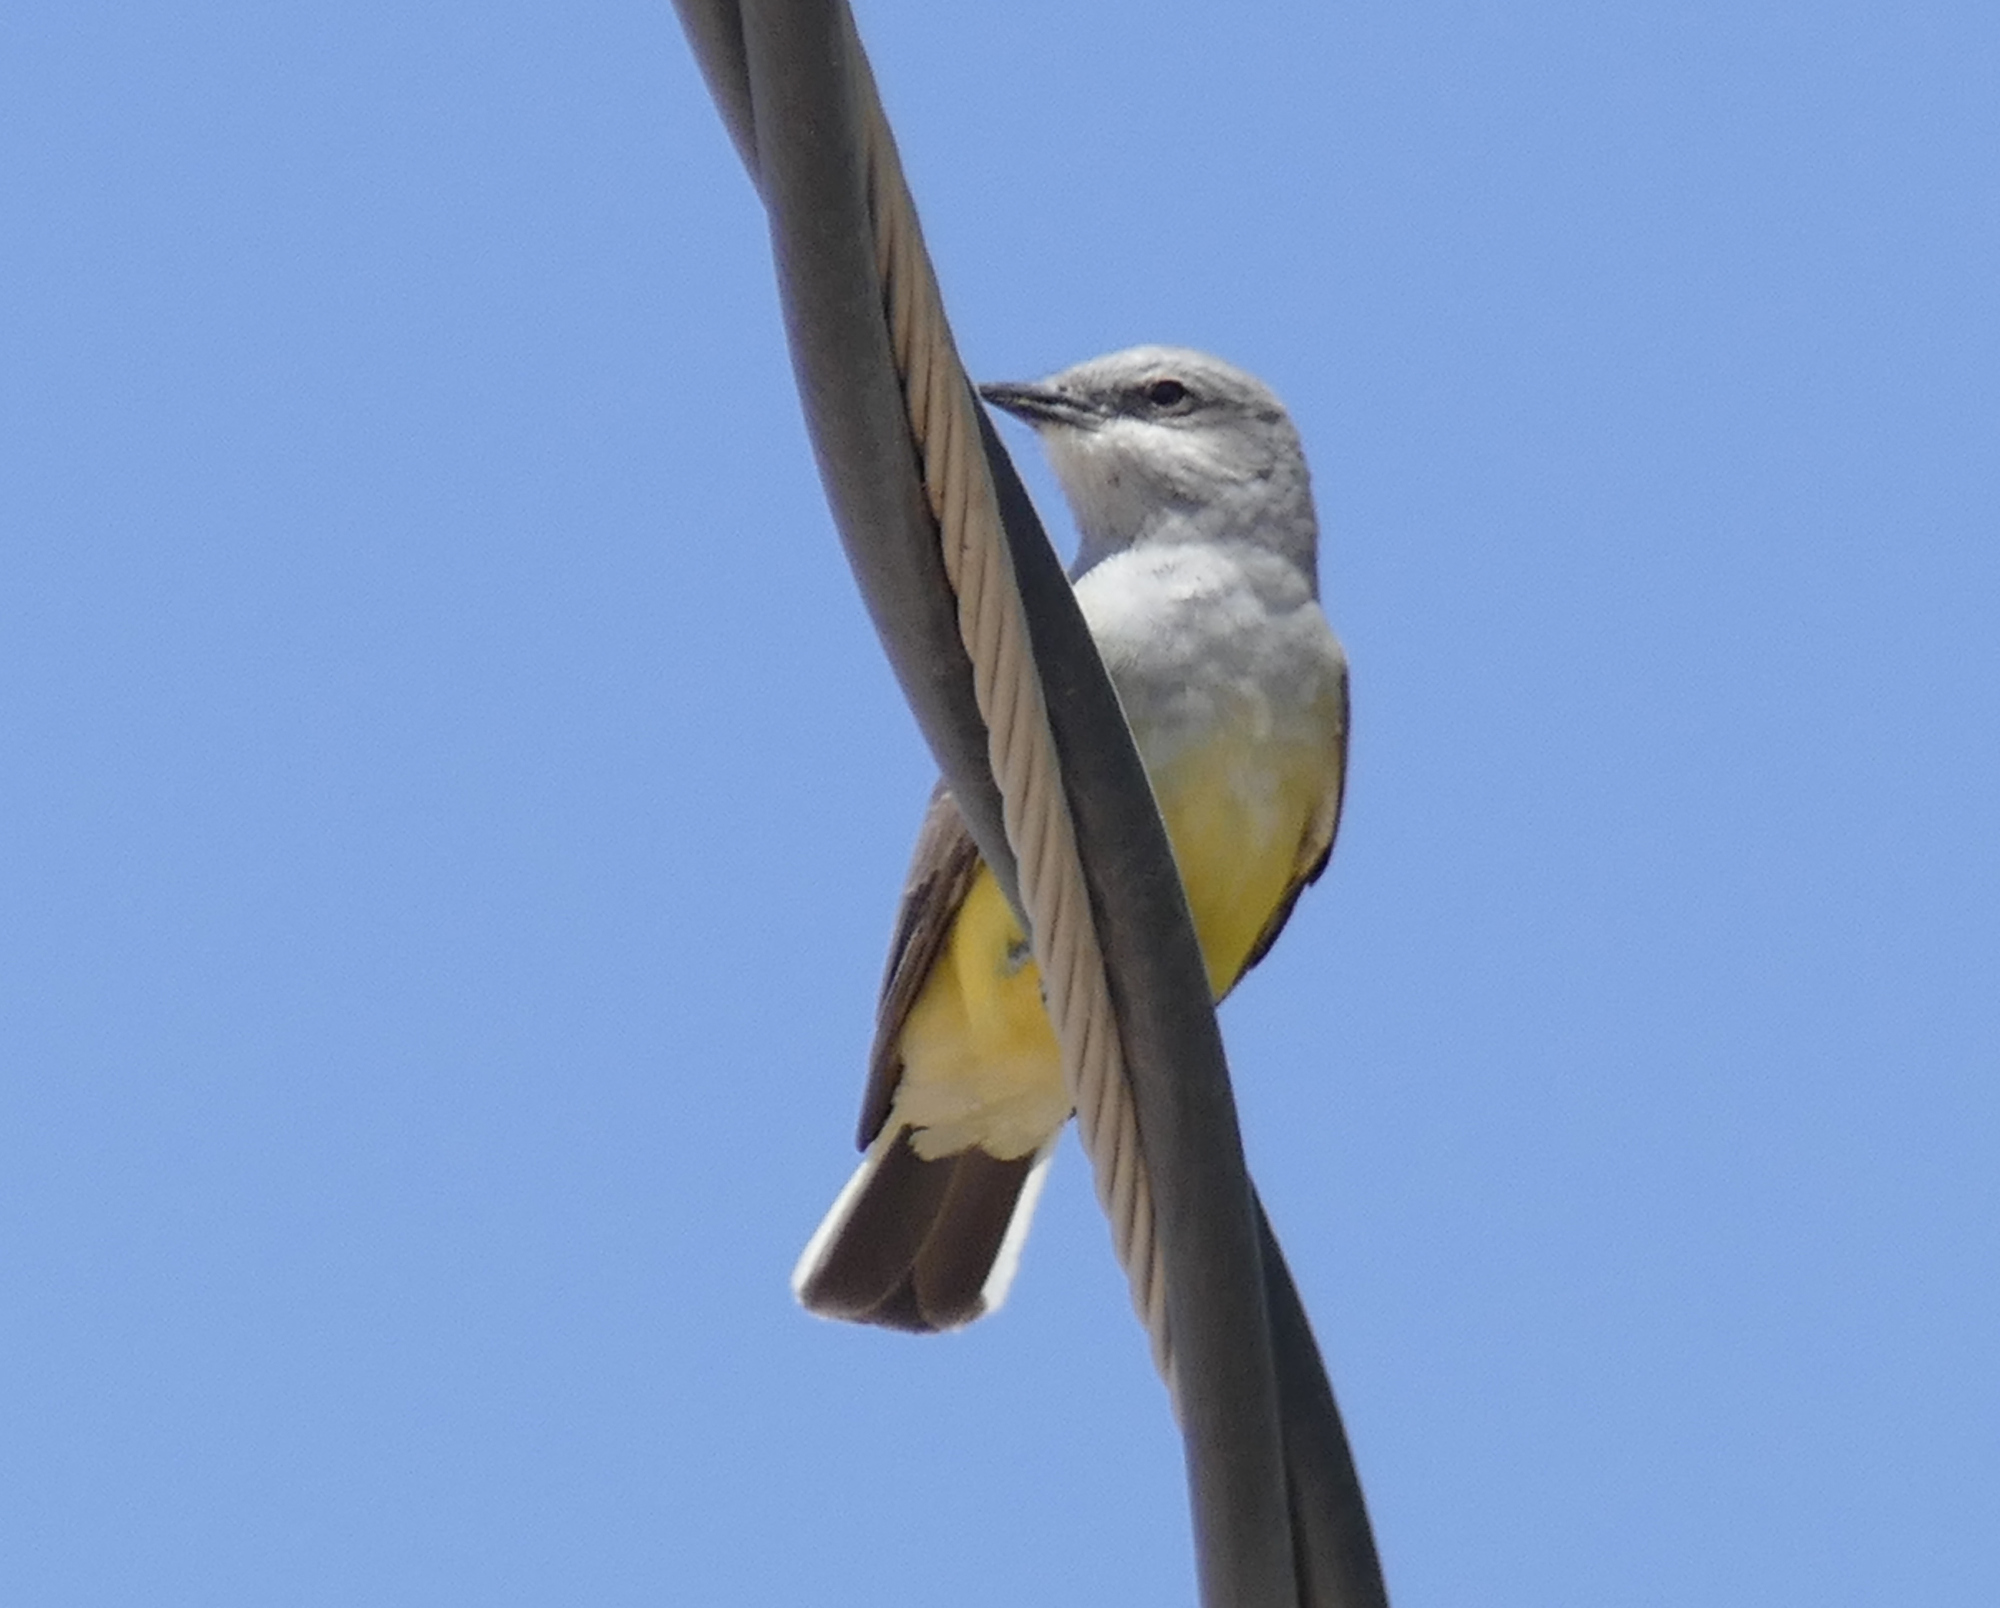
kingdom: Animalia
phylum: Chordata
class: Aves
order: Passeriformes
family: Tyrannidae
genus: Tyrannus
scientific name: Tyrannus verticalis
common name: Western kingbird
